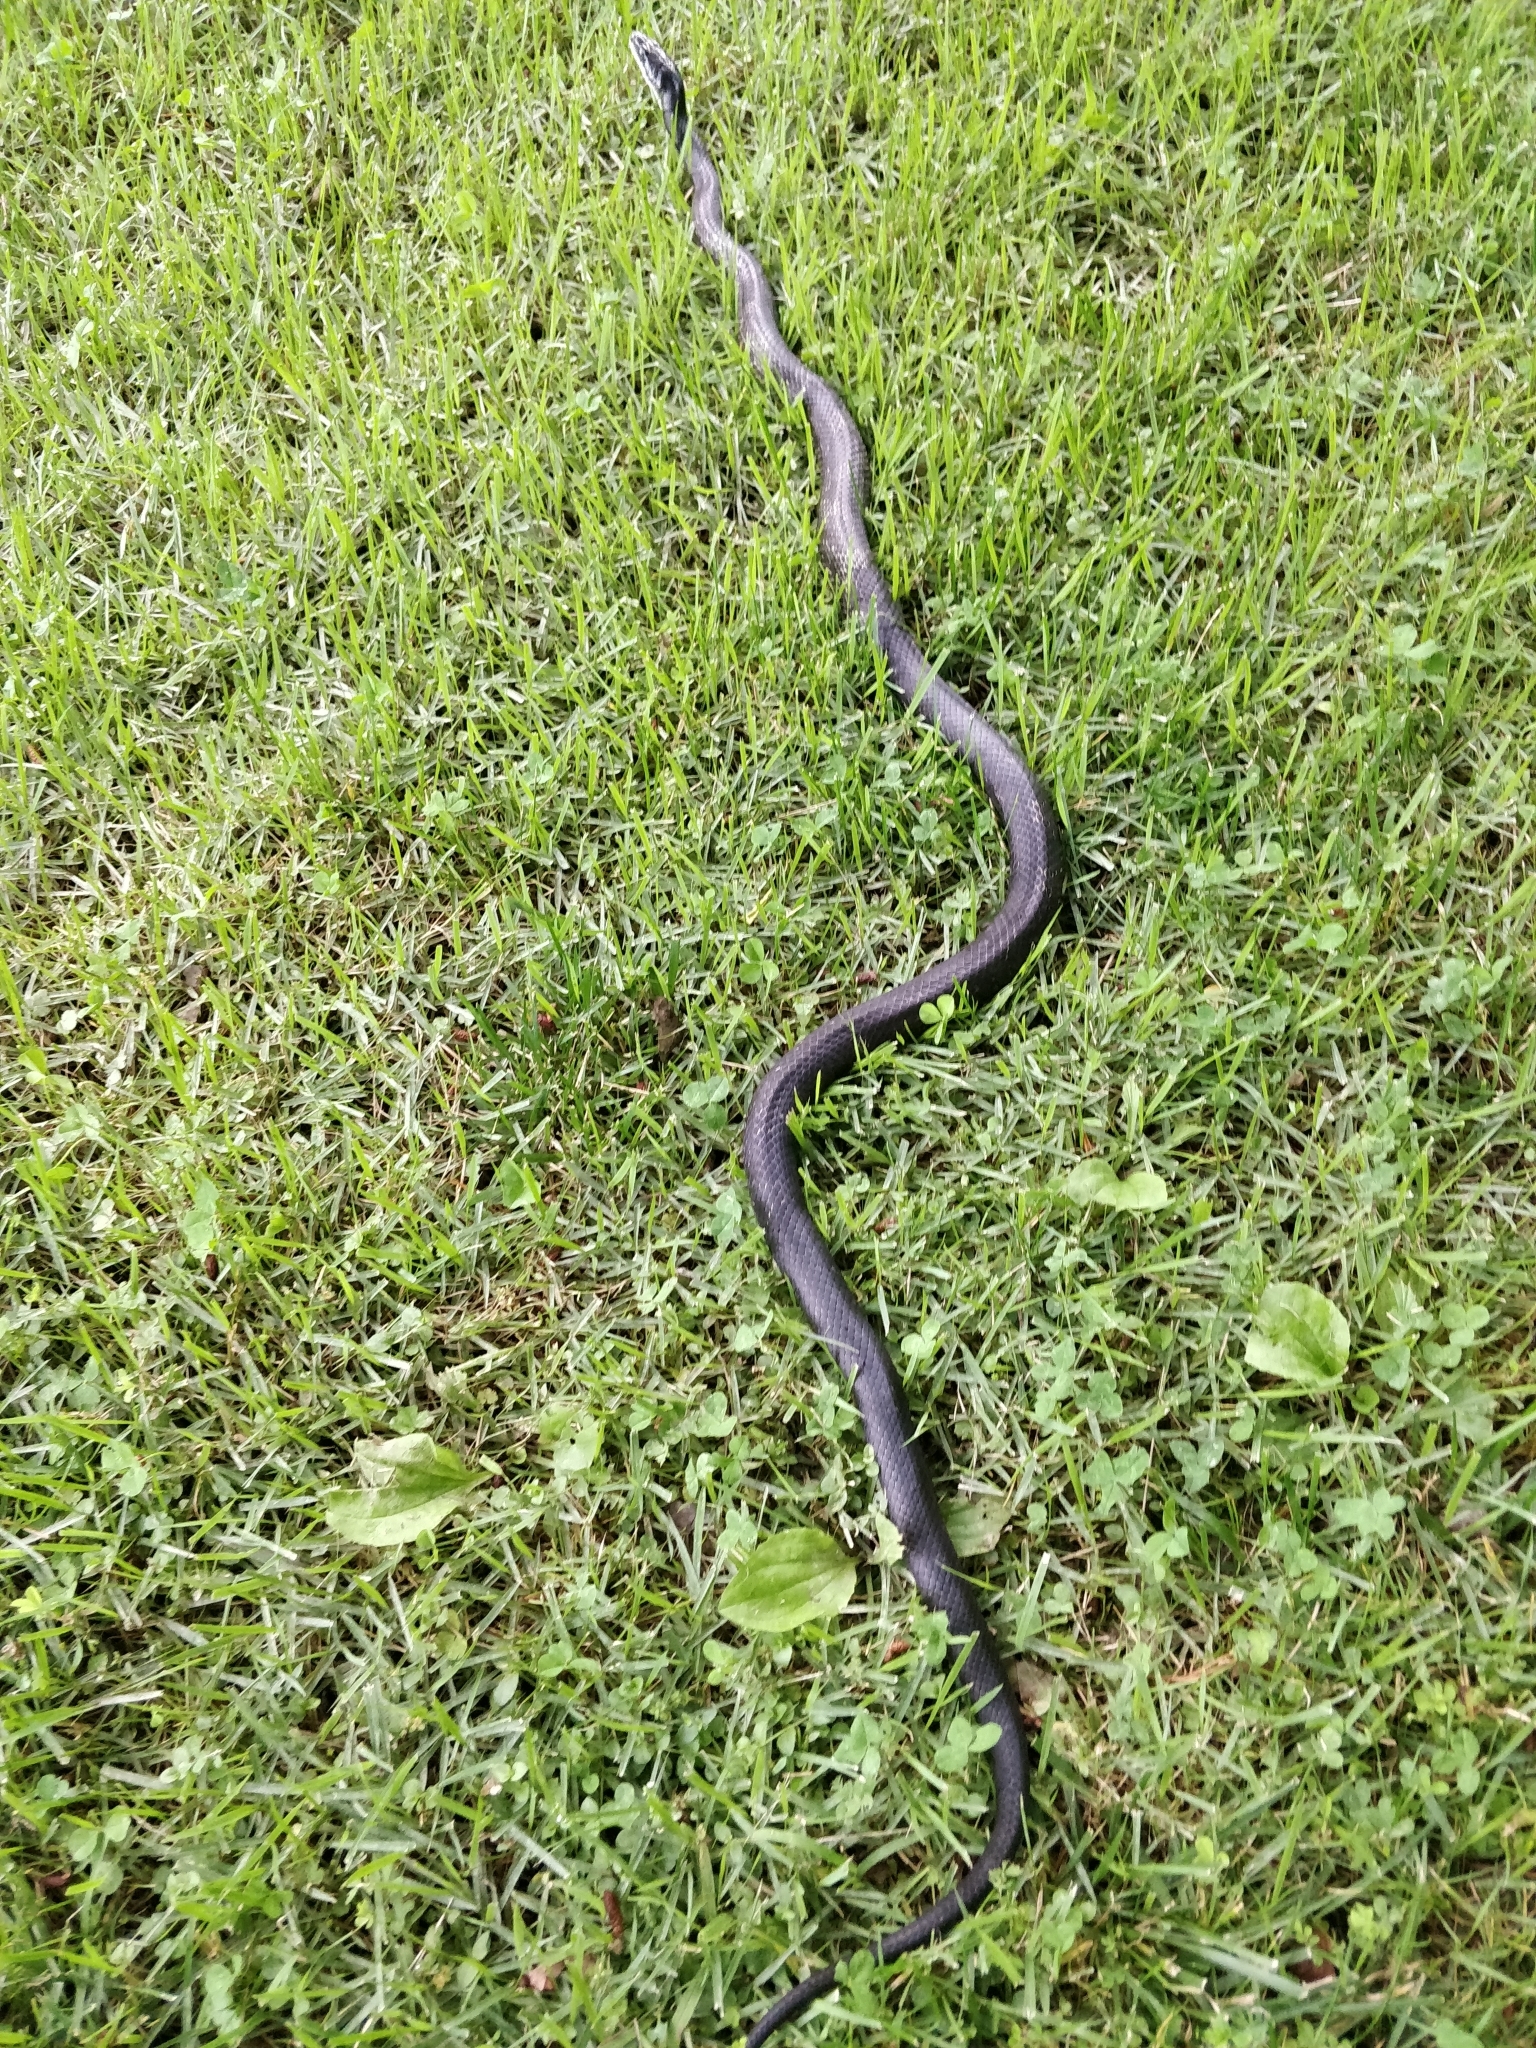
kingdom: Animalia
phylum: Chordata
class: Squamata
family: Colubridae
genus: Pantherophis
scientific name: Pantherophis spiloides
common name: Gray rat snake
